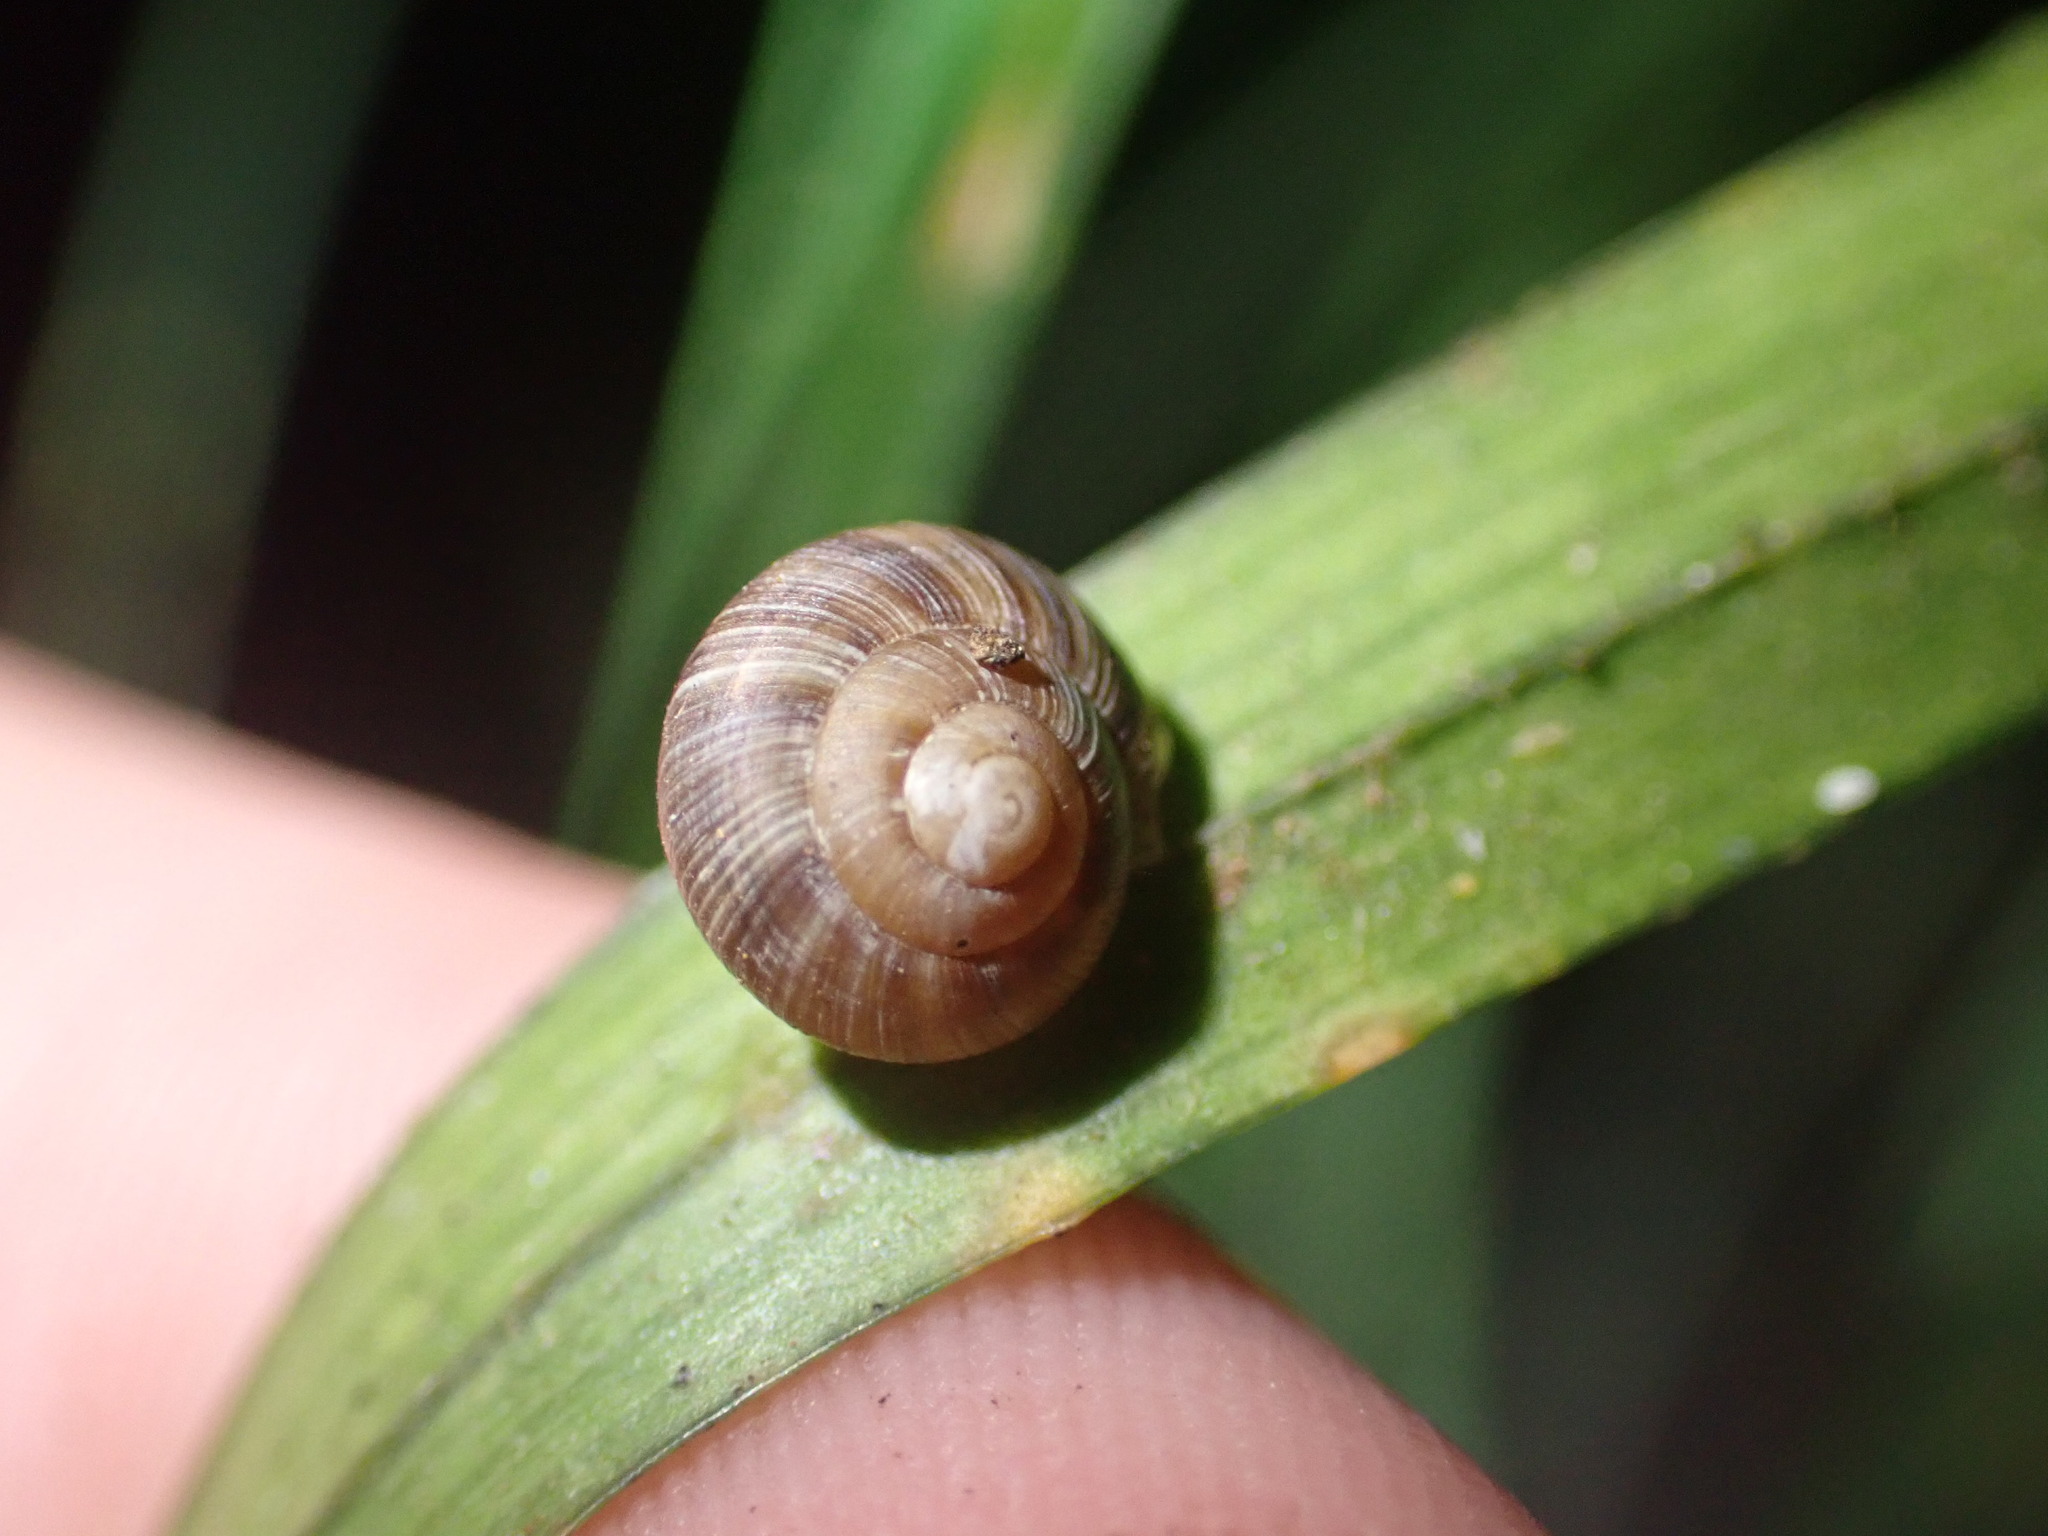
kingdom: Animalia
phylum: Mollusca
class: Gastropoda
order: Stylommatophora
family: Charopidae
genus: Serpho
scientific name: Serpho
